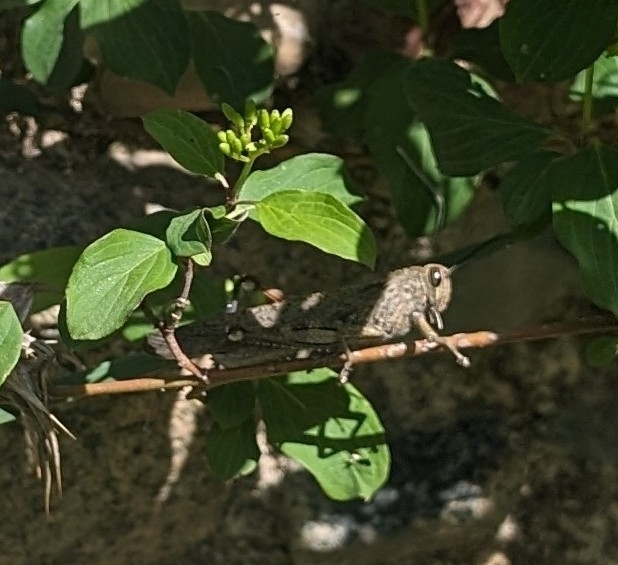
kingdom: Animalia
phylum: Arthropoda
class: Insecta
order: Orthoptera
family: Acrididae
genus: Anacridium
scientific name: Anacridium aegyptium
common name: Egyptian grasshopper
